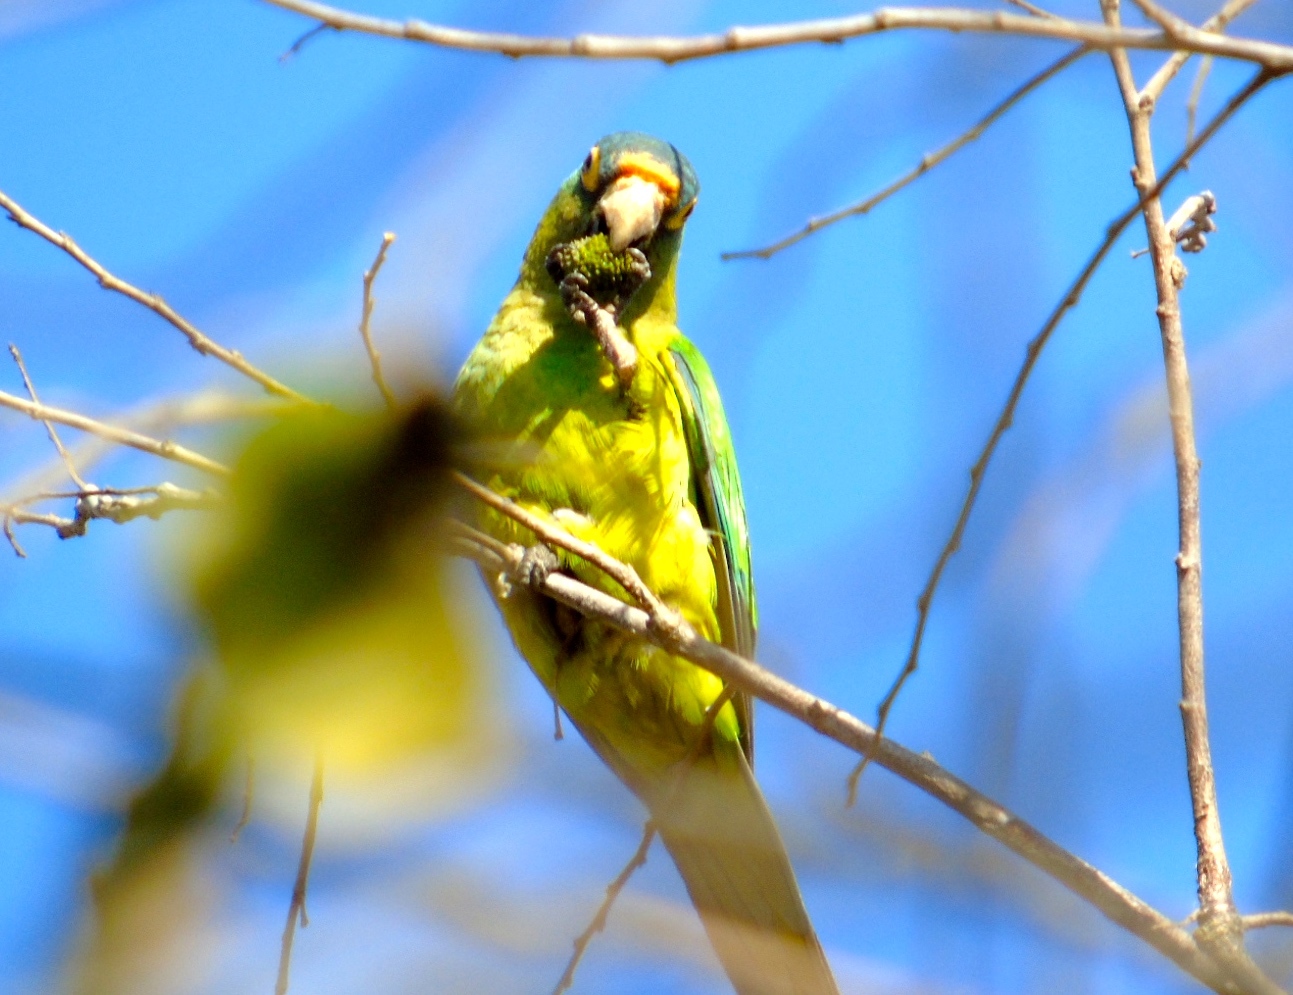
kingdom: Animalia
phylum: Chordata
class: Aves
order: Psittaciformes
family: Psittacidae
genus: Aratinga
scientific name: Aratinga canicularis
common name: Orange-fronted parakeet
